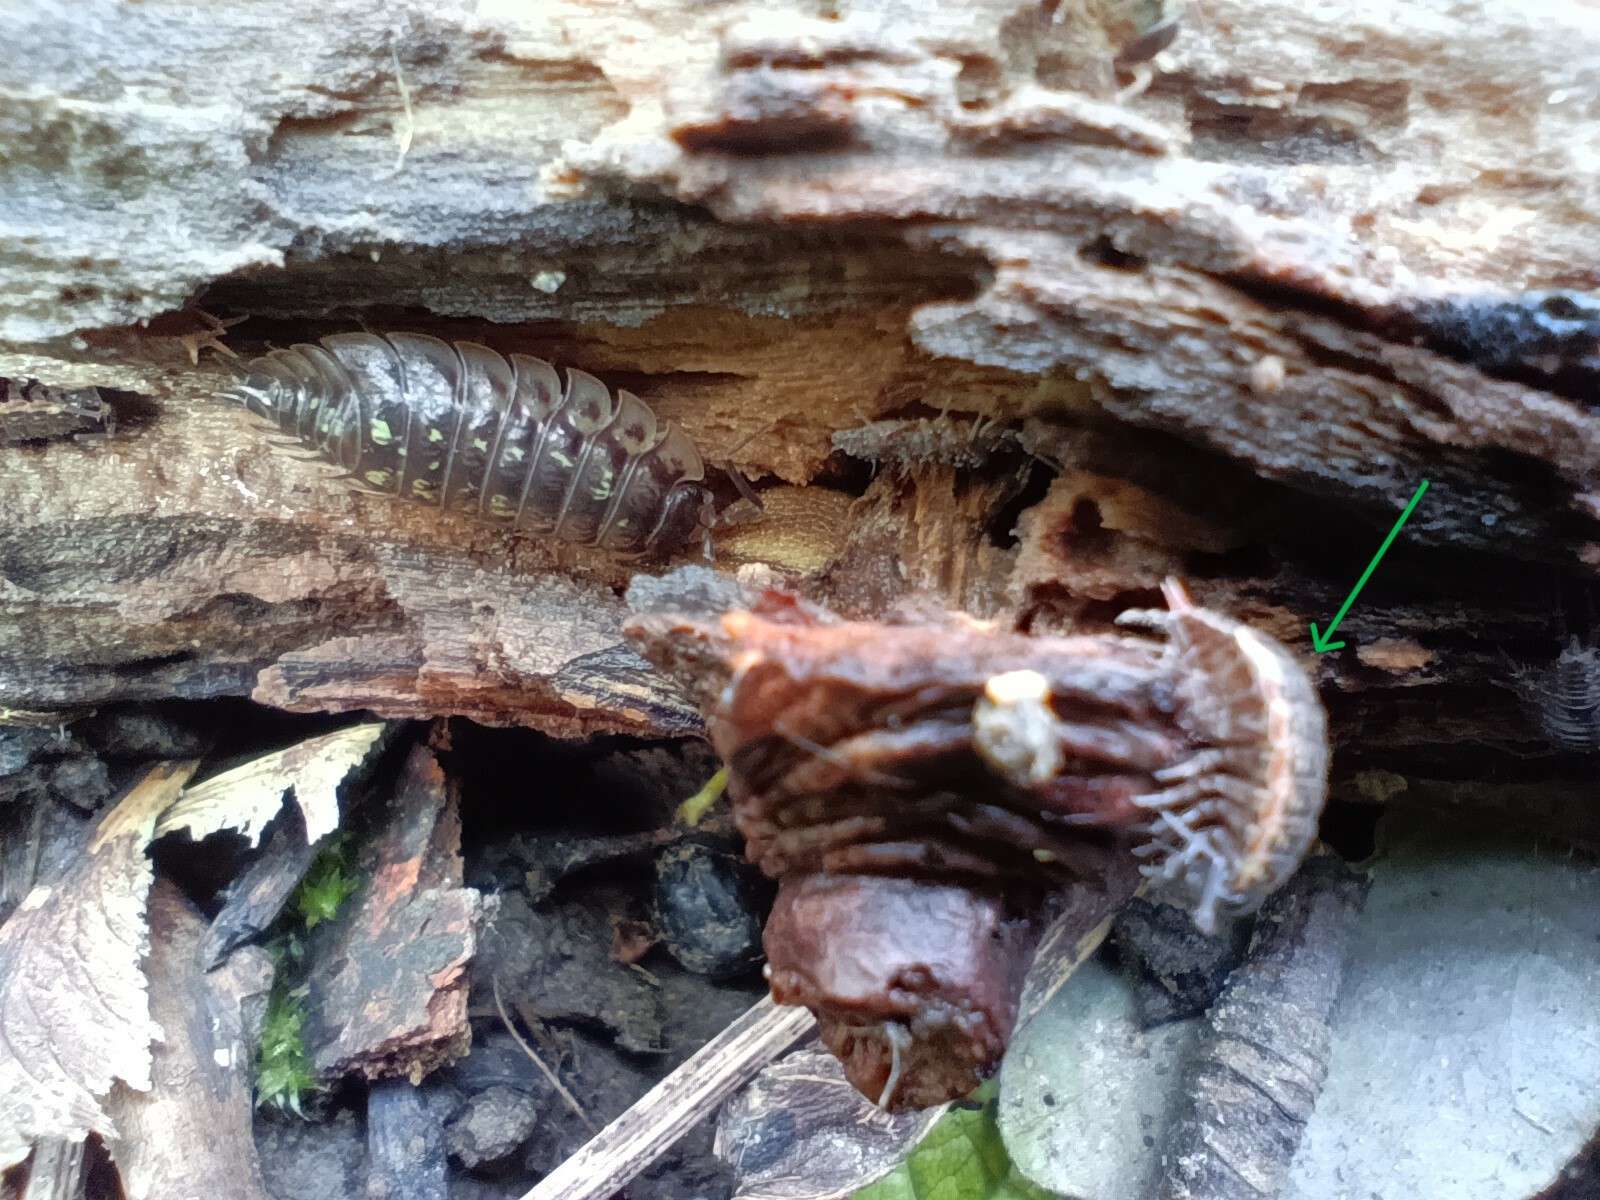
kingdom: Animalia
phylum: Arthropoda
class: Malacostraca
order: Isopoda
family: Philosciidae
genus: Philoscia
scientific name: Philoscia muscorum
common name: Common striped woodlouse
